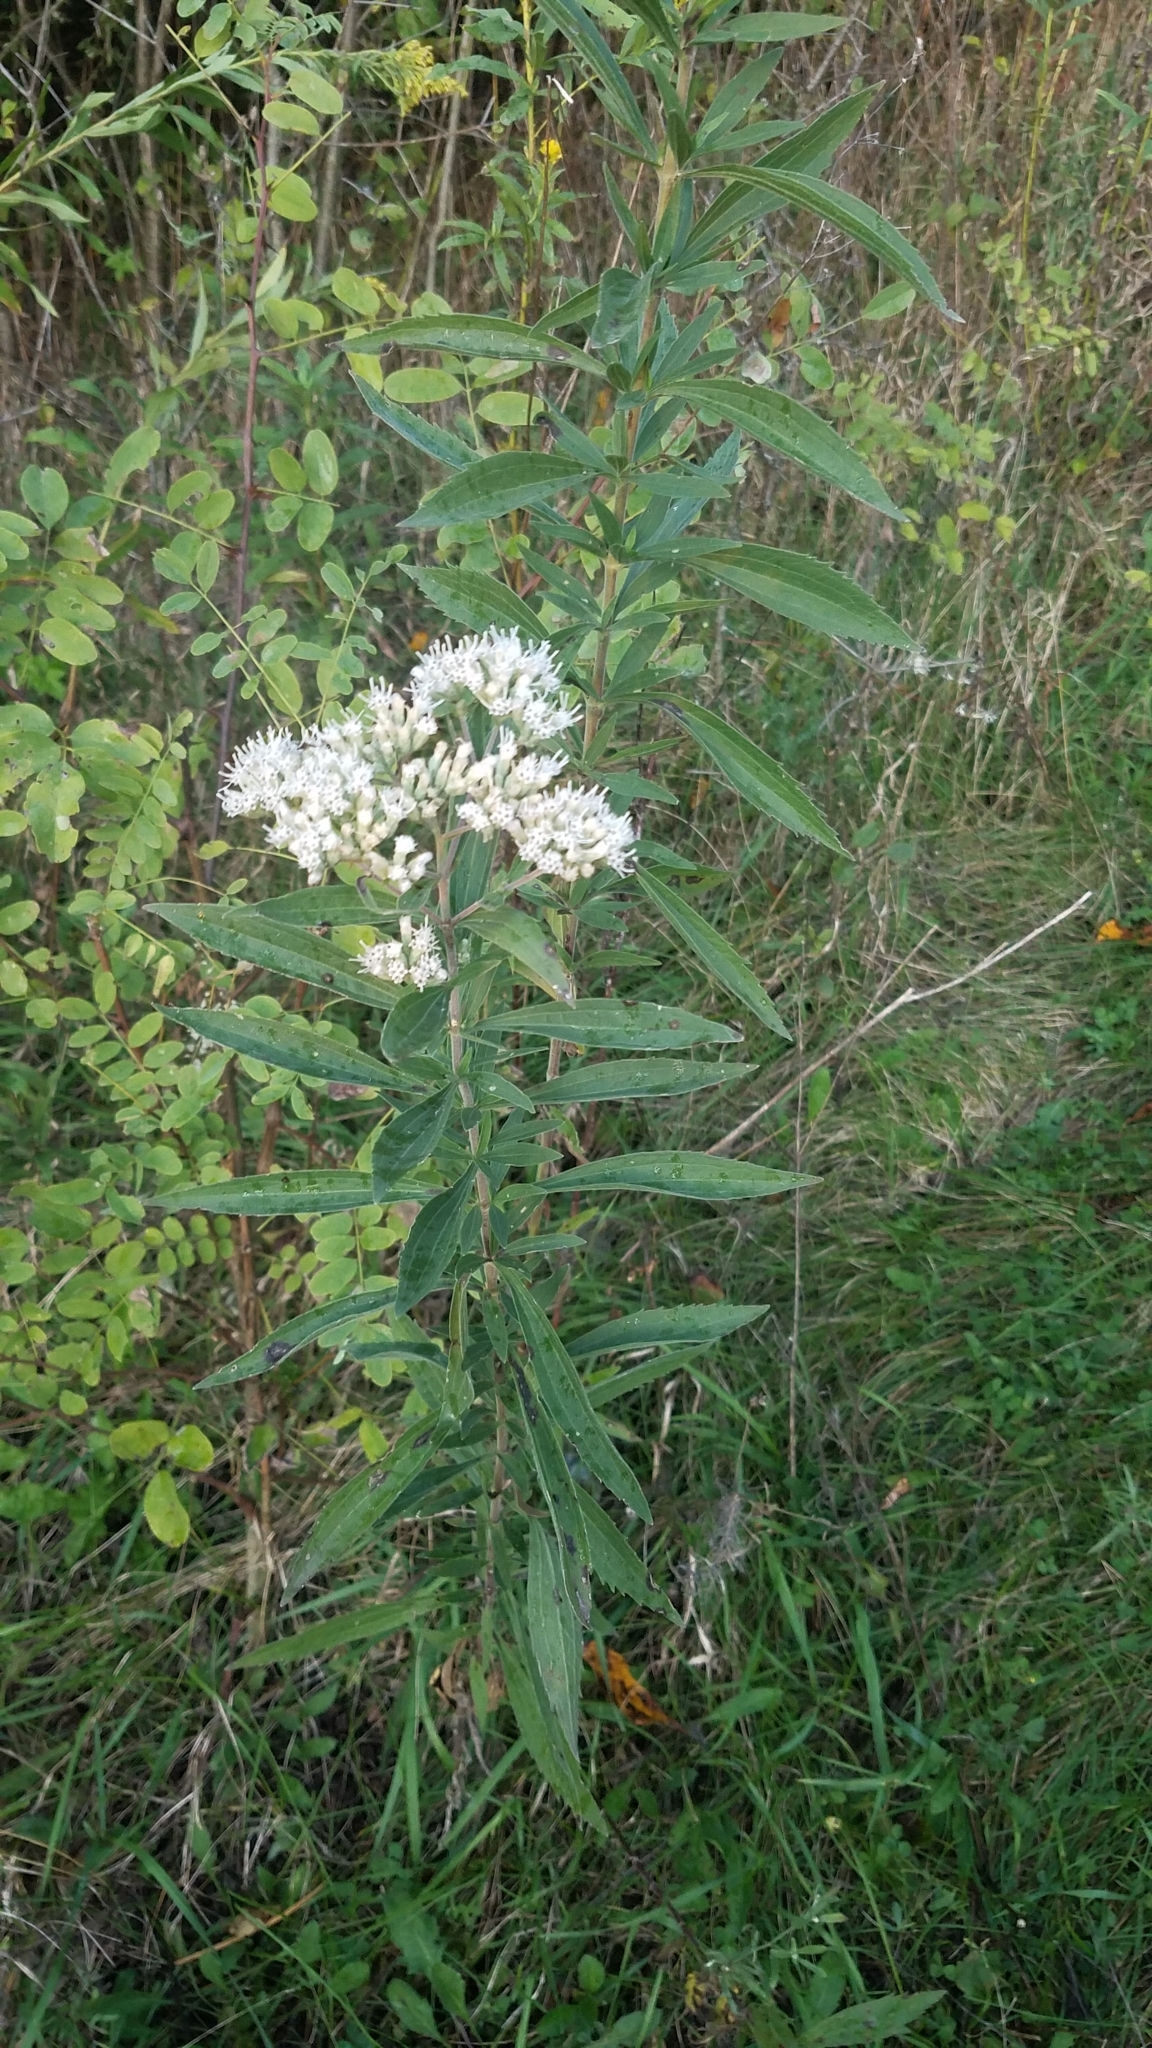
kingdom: Plantae
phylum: Tracheophyta
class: Magnoliopsida
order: Asterales
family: Asteraceae
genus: Eupatorium
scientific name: Eupatorium altissimum
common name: Tall thoroughwort
